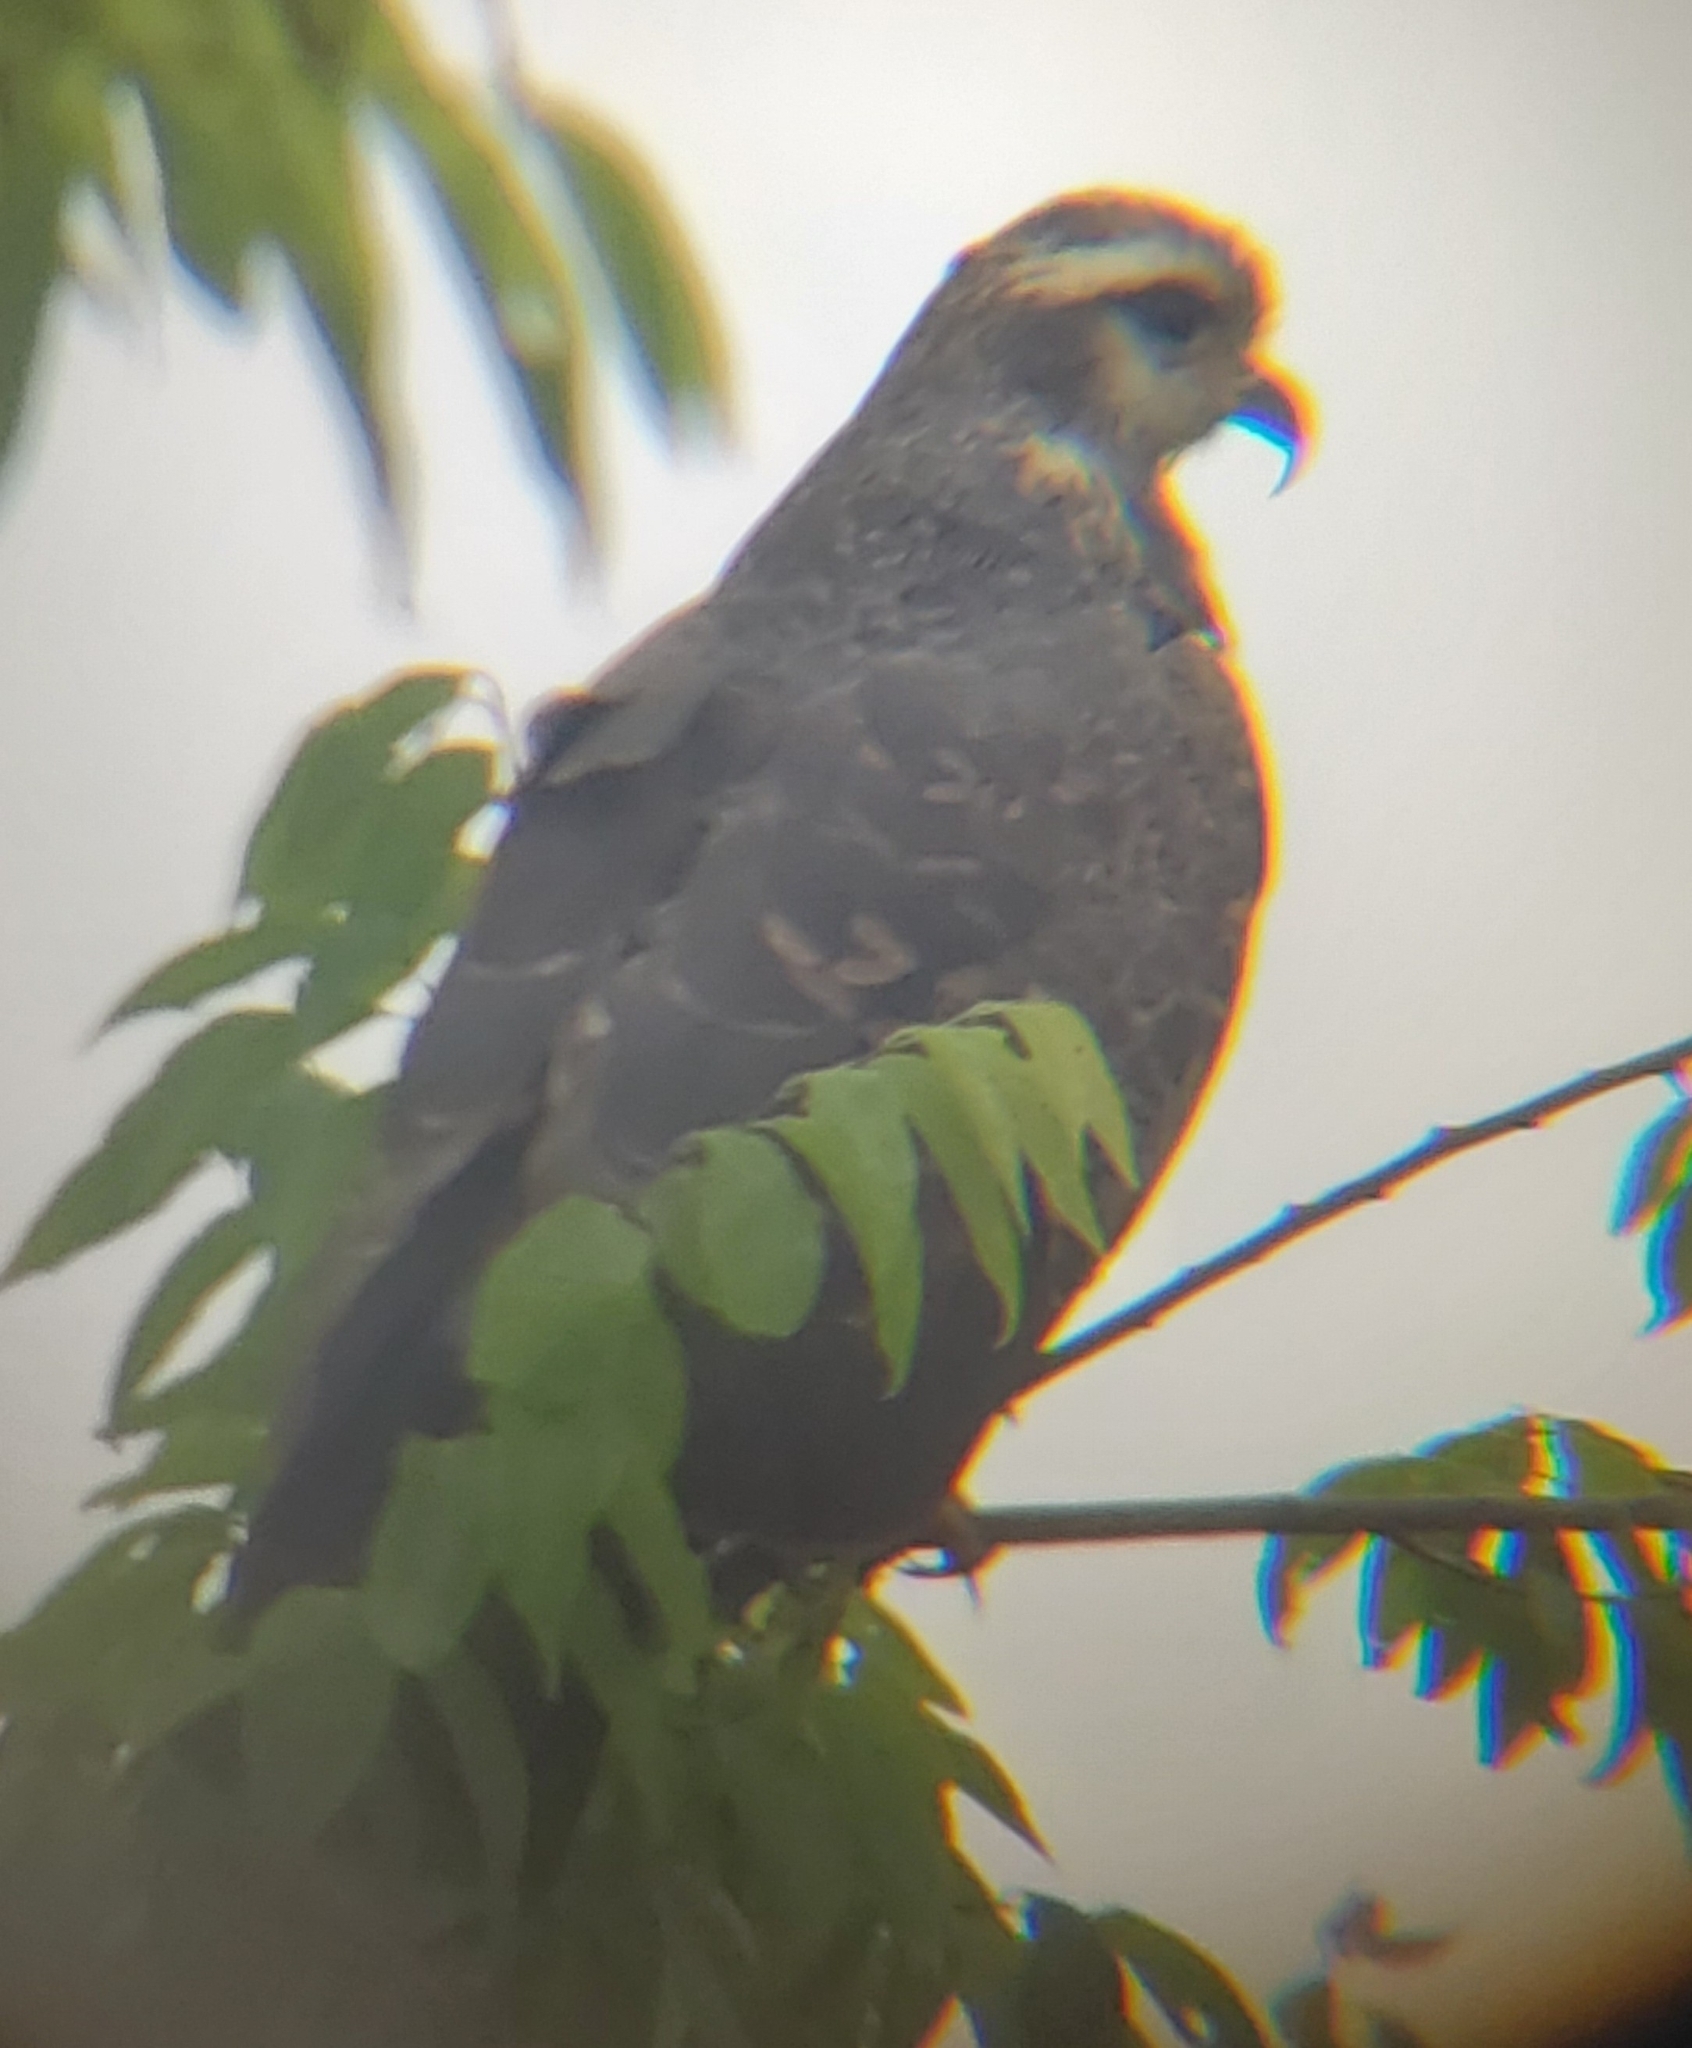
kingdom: Animalia
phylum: Chordata
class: Aves
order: Accipitriformes
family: Accipitridae
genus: Rostrhamus
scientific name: Rostrhamus sociabilis
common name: Snail kite
